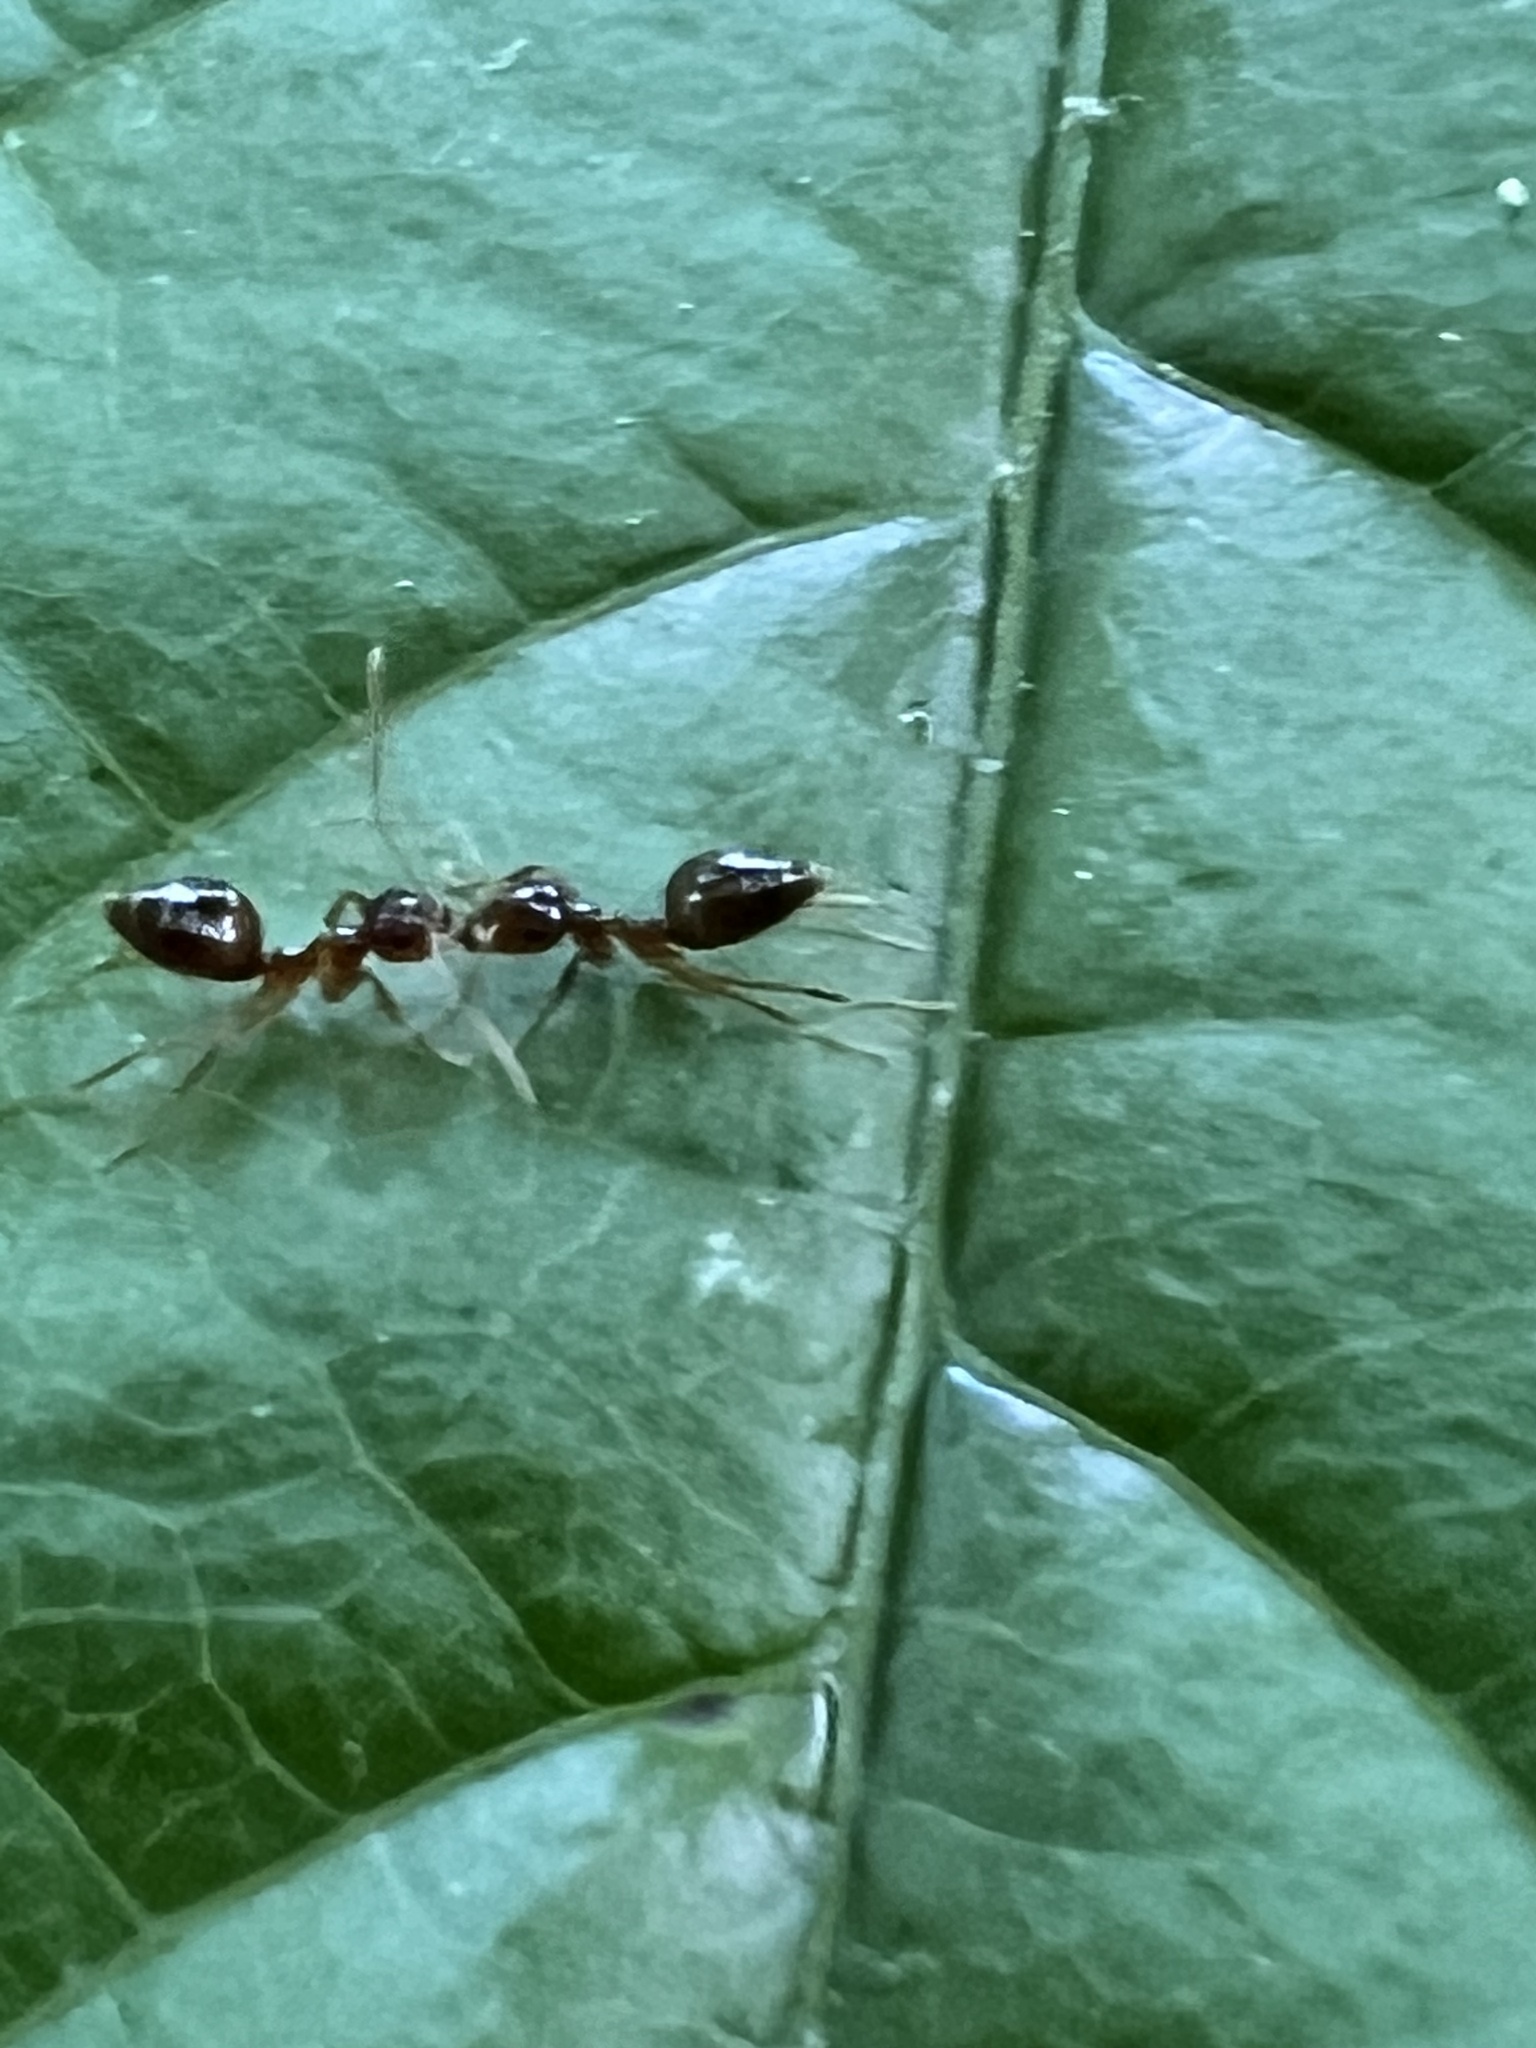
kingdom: Animalia
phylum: Arthropoda
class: Insecta
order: Hymenoptera
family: Formicidae
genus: Prenolepis
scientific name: Prenolepis imparis
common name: Small honey ant
